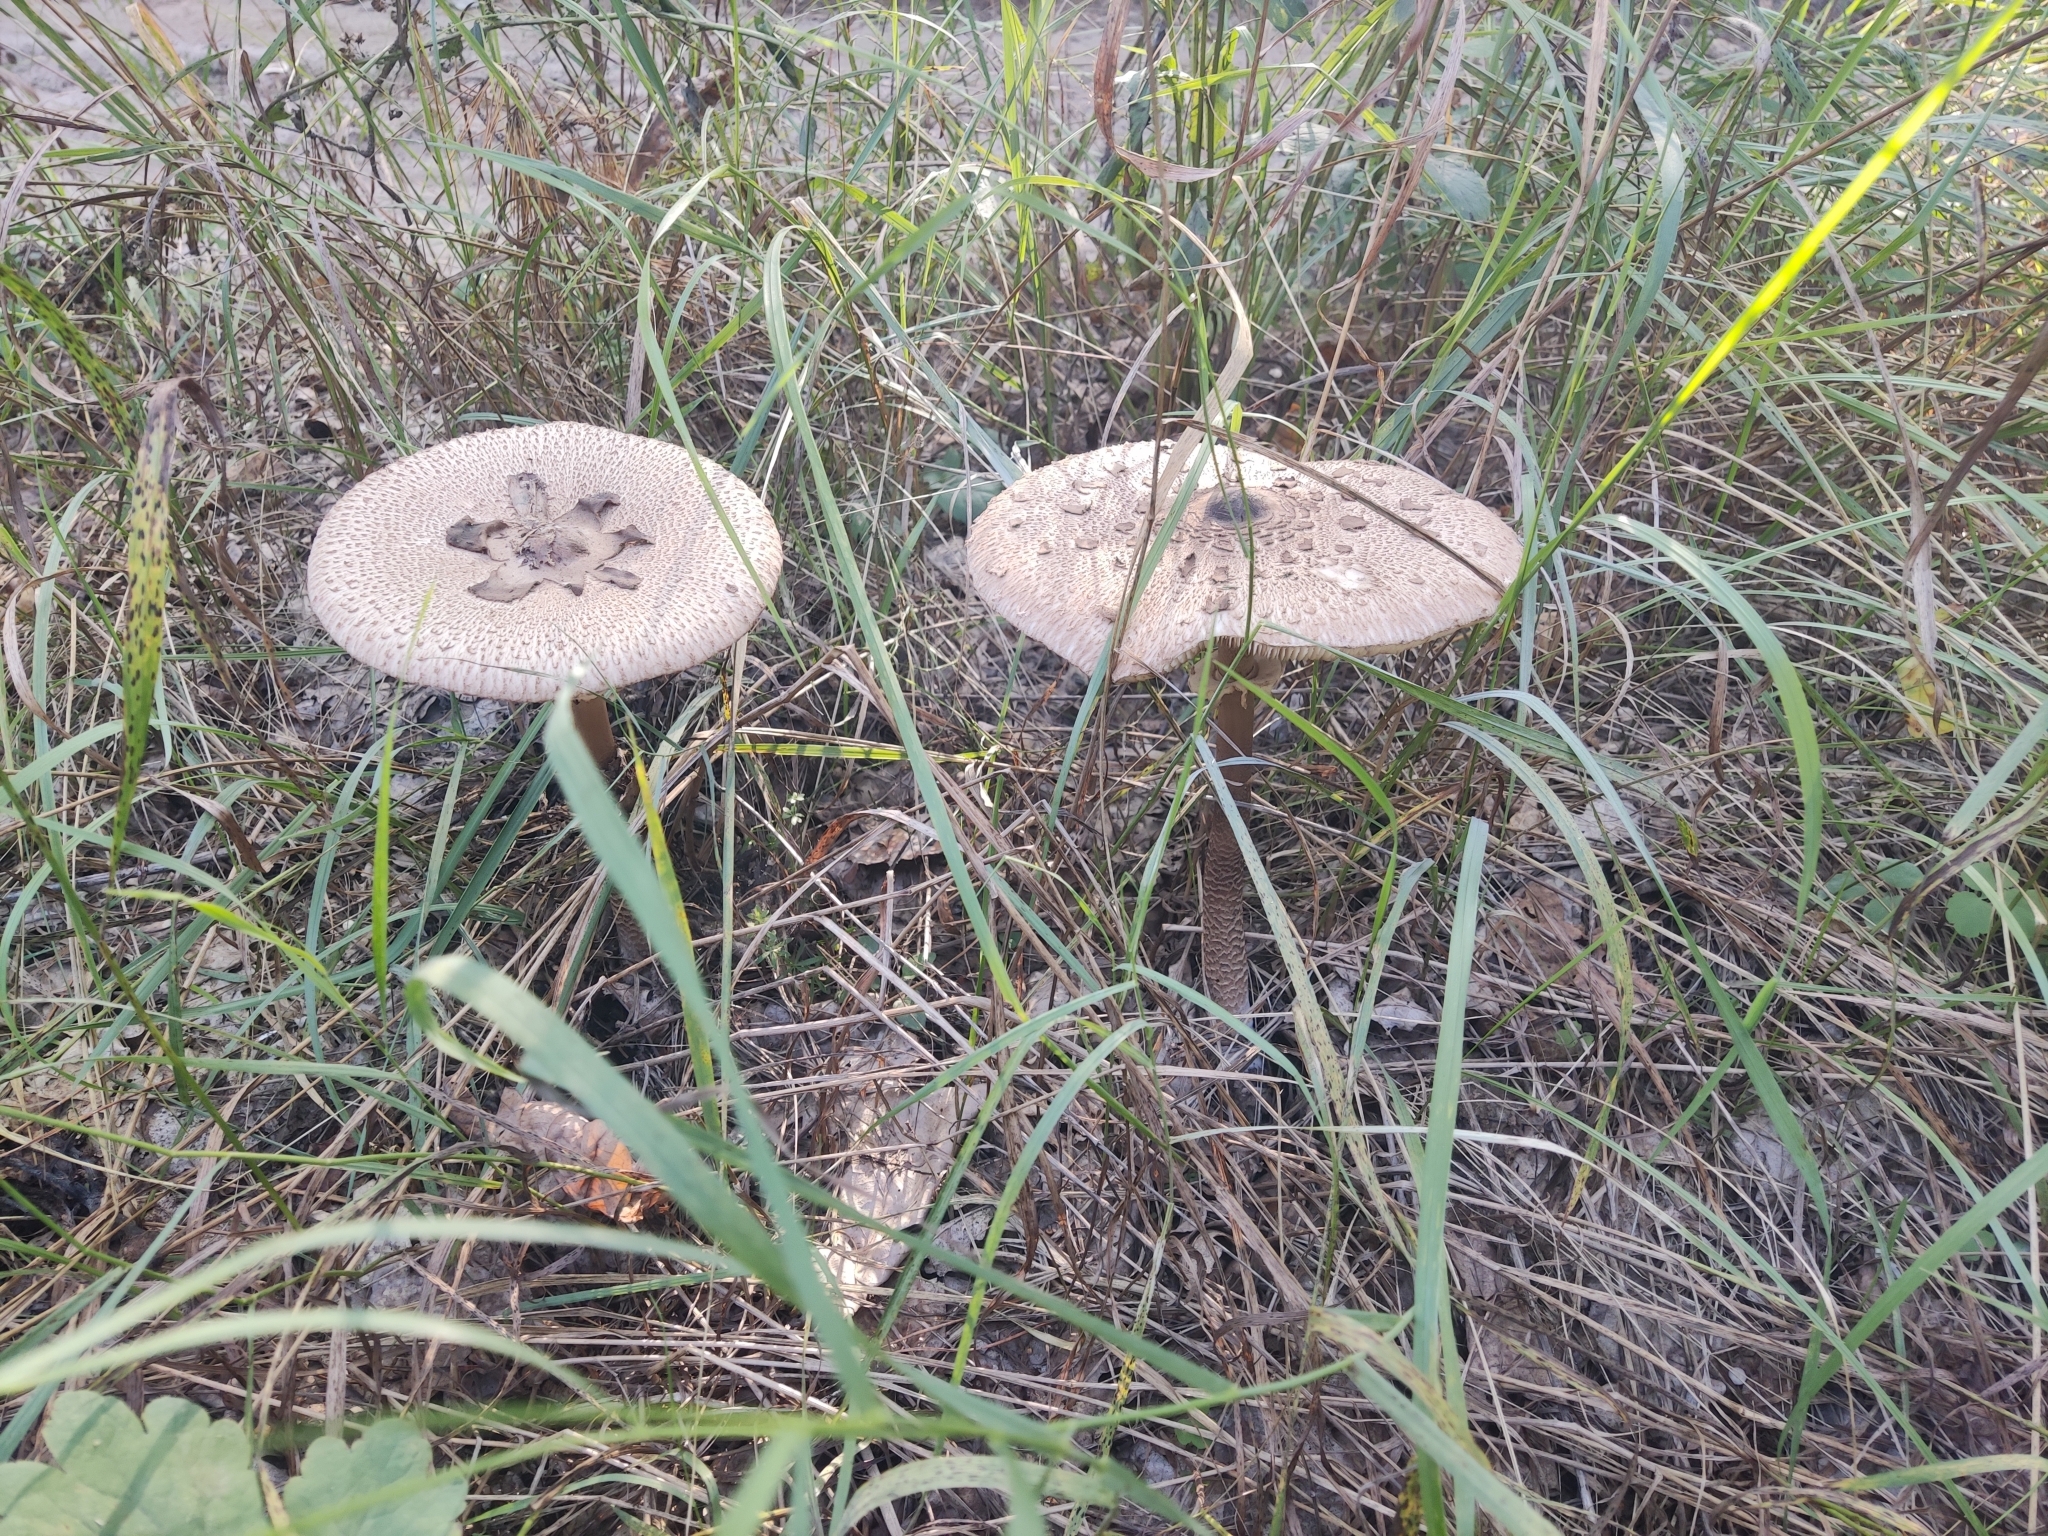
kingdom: Fungi
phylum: Basidiomycota
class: Agaricomycetes
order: Agaricales
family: Agaricaceae
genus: Macrolepiota
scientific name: Macrolepiota procera
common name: Parasol
